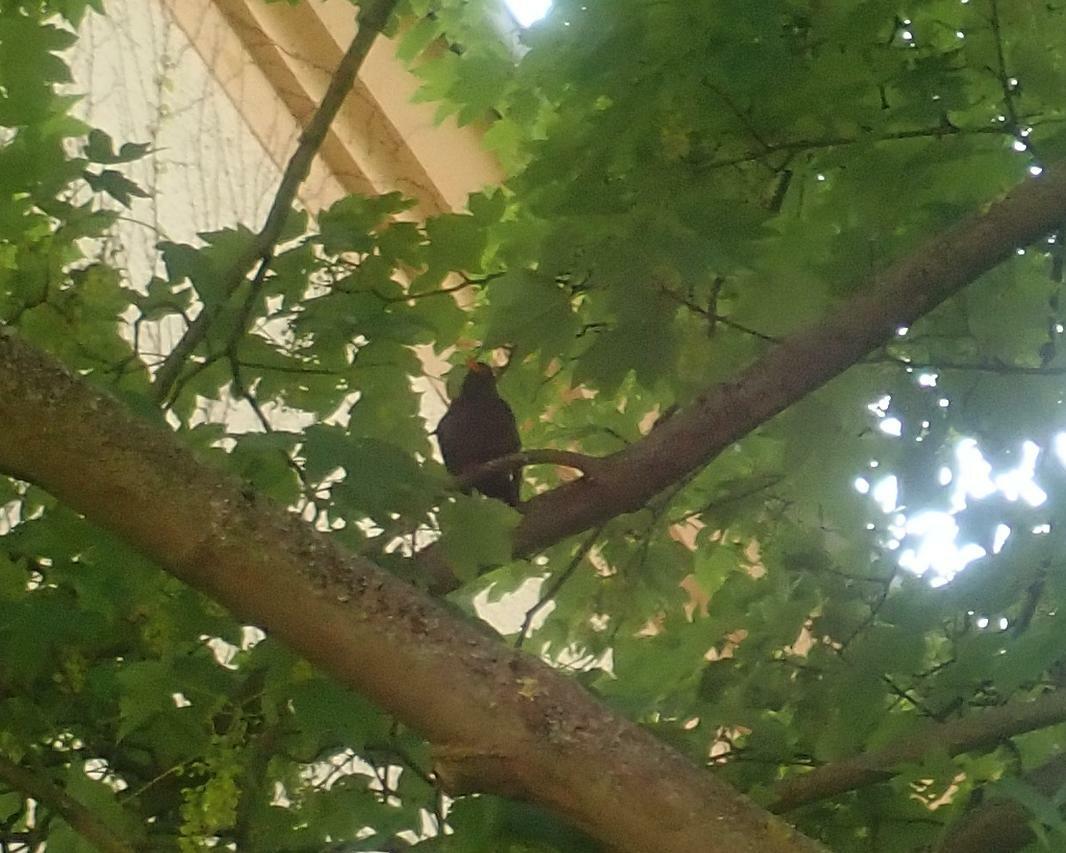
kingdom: Animalia
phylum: Chordata
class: Aves
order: Passeriformes
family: Turdidae
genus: Turdus
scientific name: Turdus merula
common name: Common blackbird
